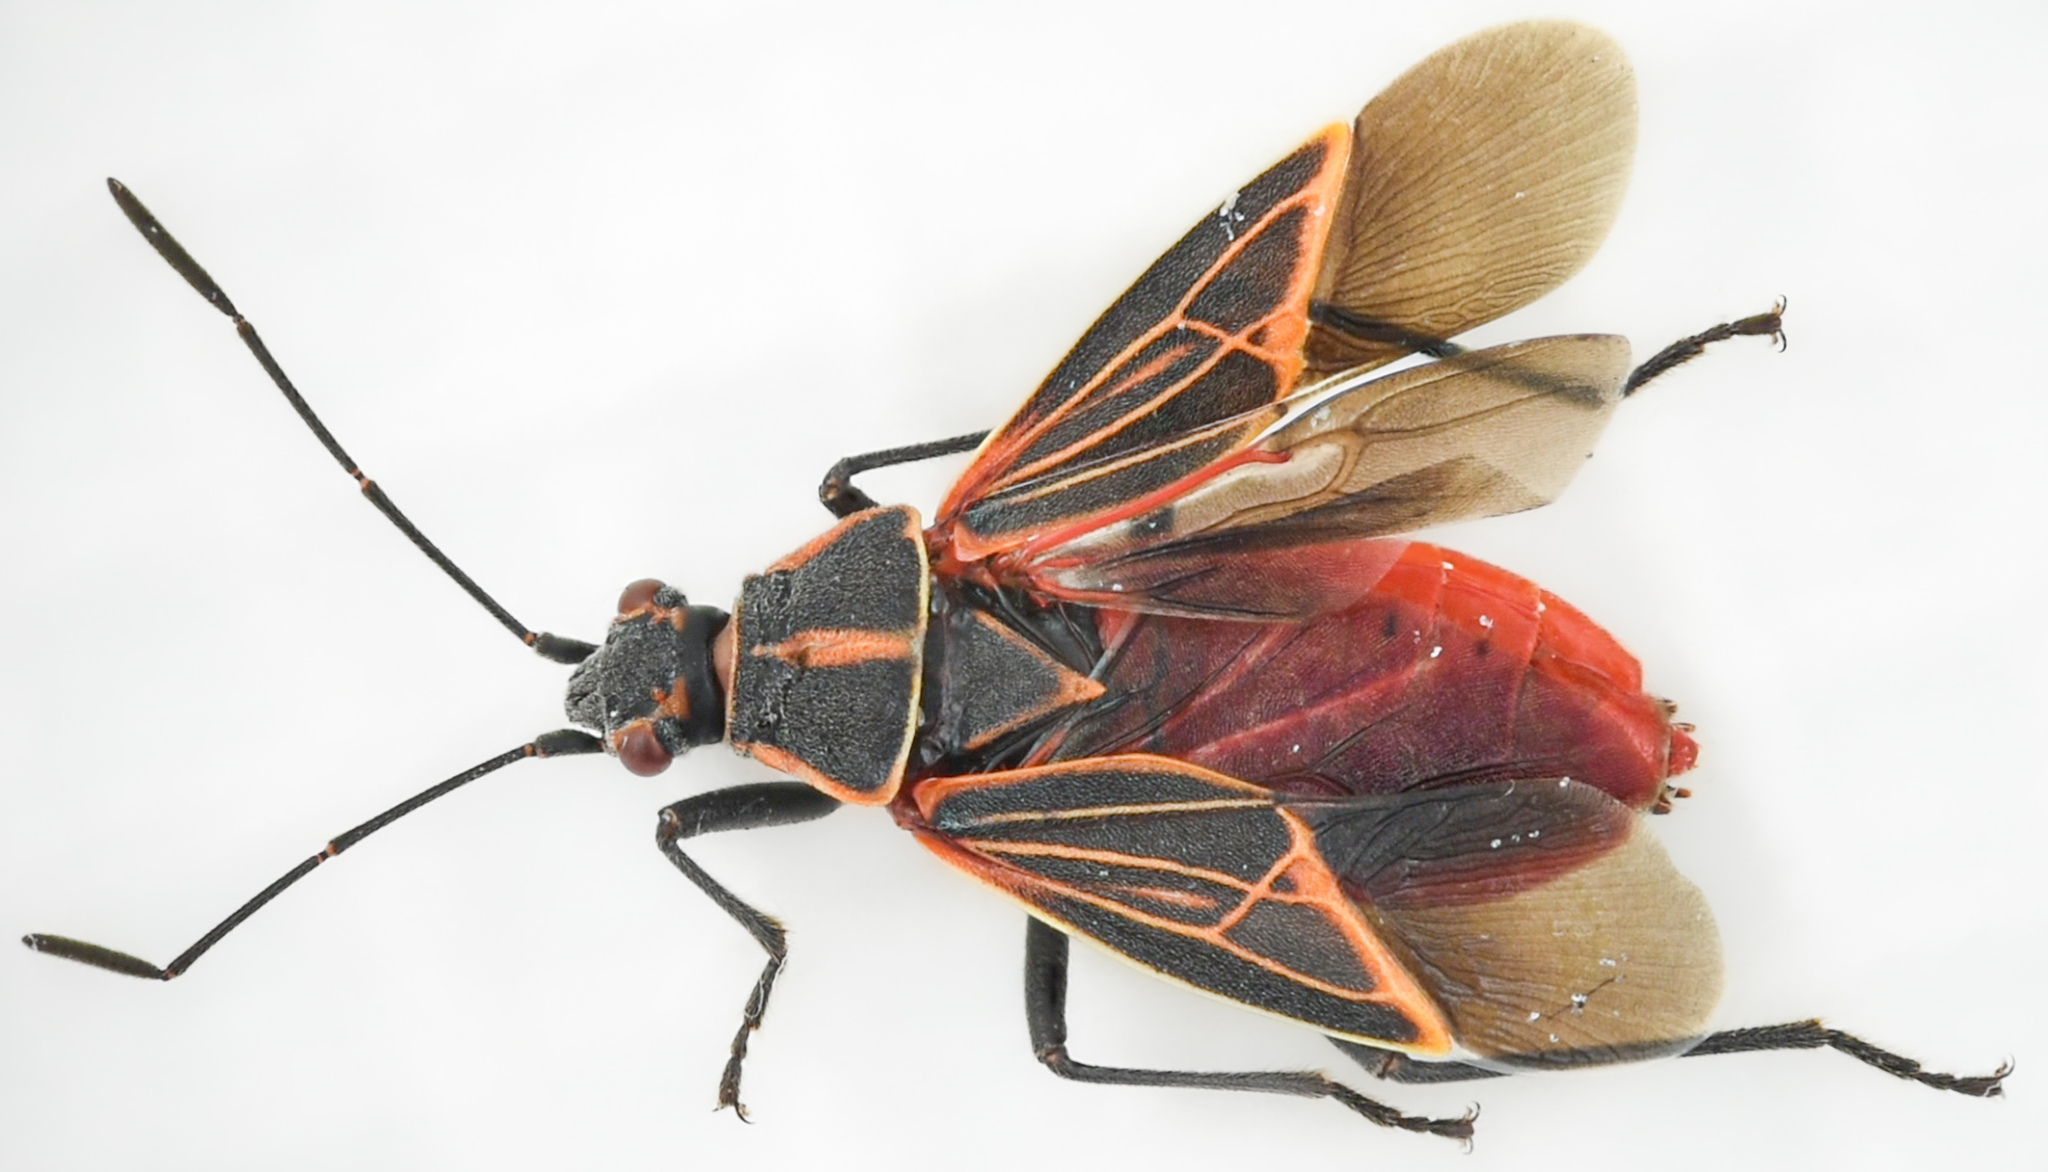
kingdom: Animalia
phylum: Arthropoda
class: Insecta
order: Hemiptera
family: Rhopalidae
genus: Boisea
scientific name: Boisea rubrolineata
